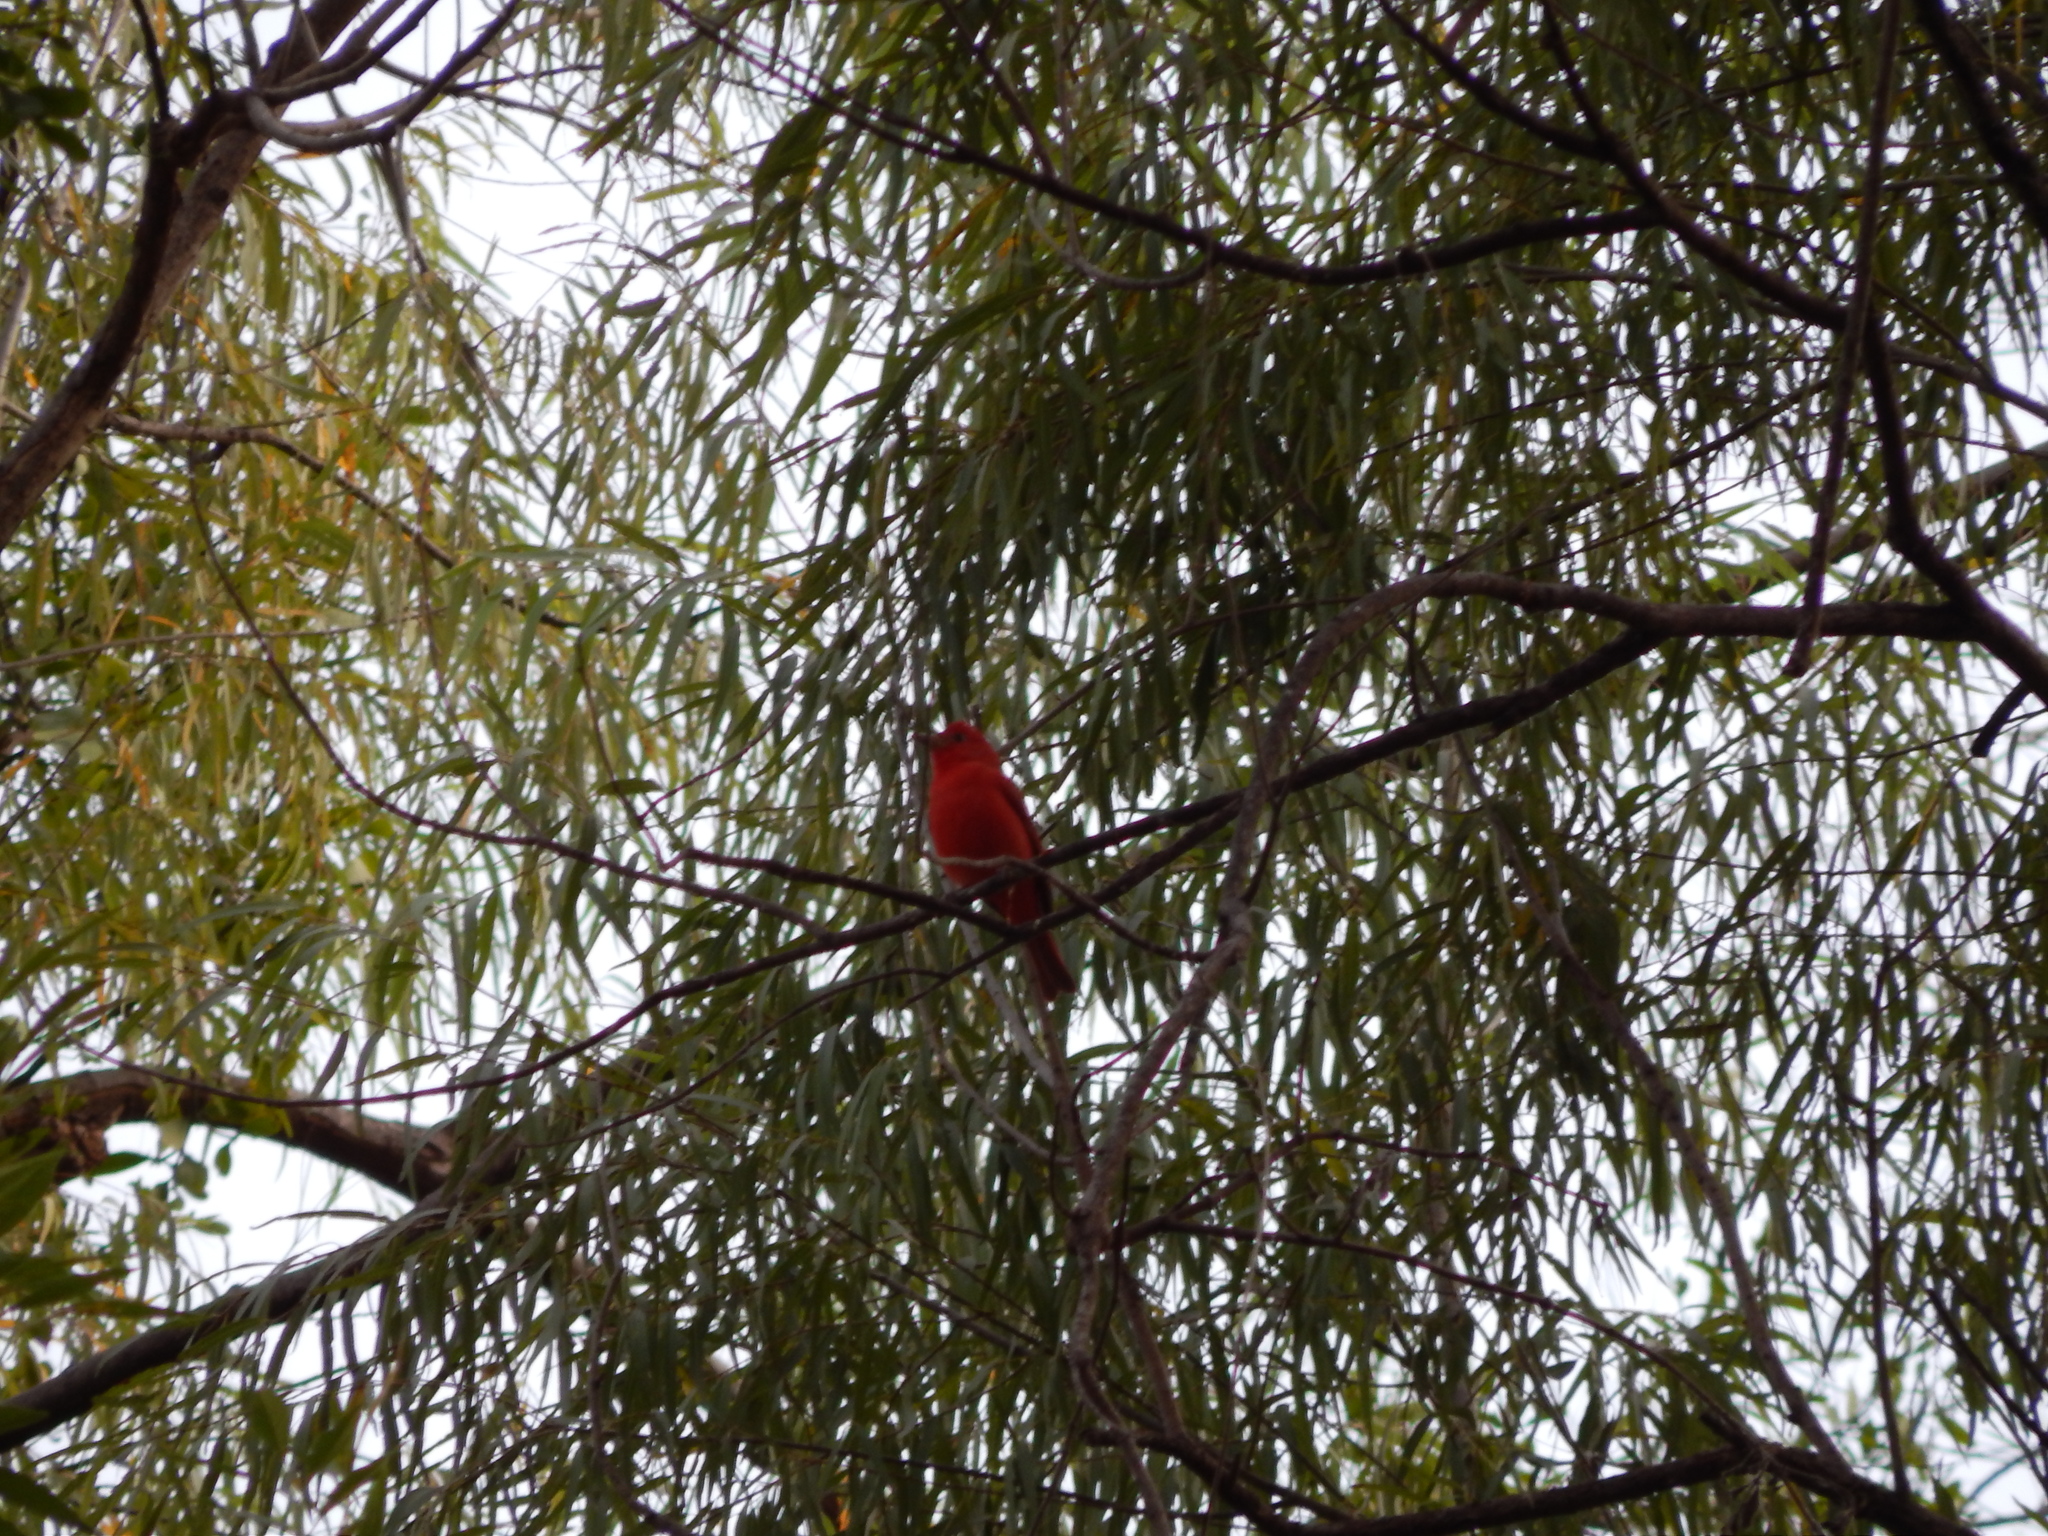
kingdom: Animalia
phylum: Chordata
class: Aves
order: Passeriformes
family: Cardinalidae
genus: Piranga
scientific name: Piranga rubra
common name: Summer tanager
